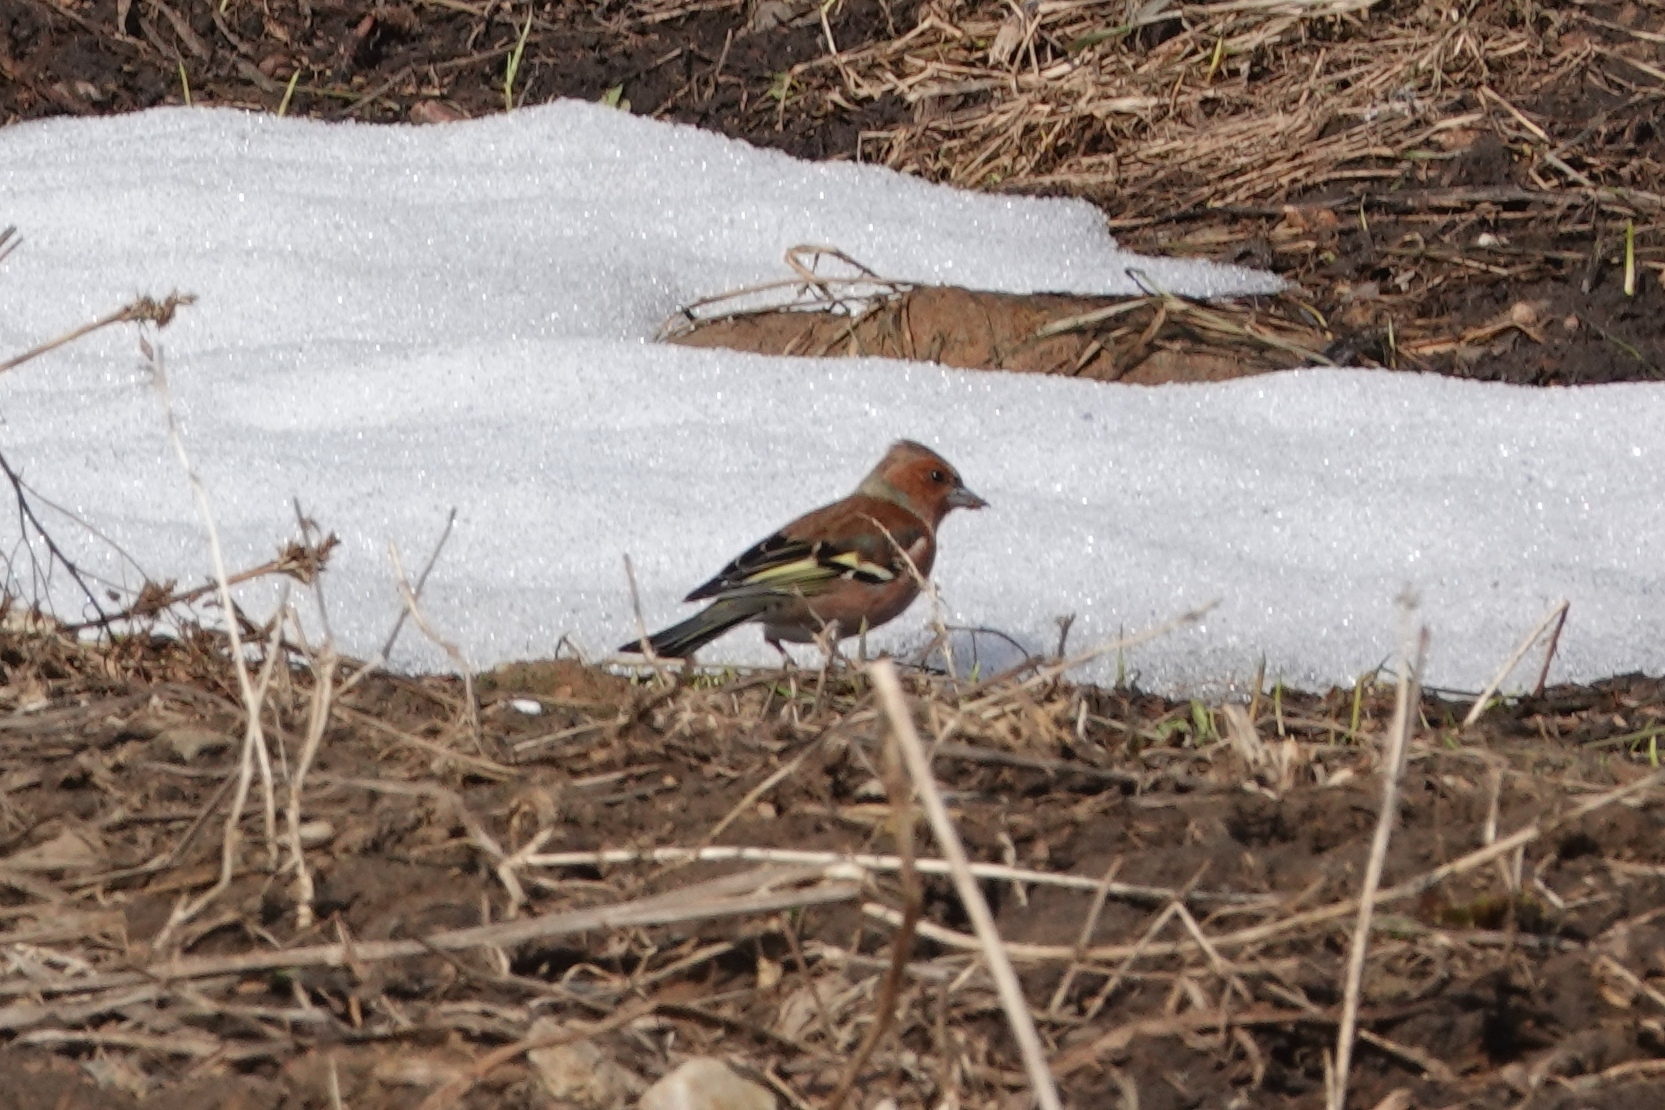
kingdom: Animalia
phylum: Chordata
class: Aves
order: Passeriformes
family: Fringillidae
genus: Fringilla
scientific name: Fringilla coelebs
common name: Common chaffinch
